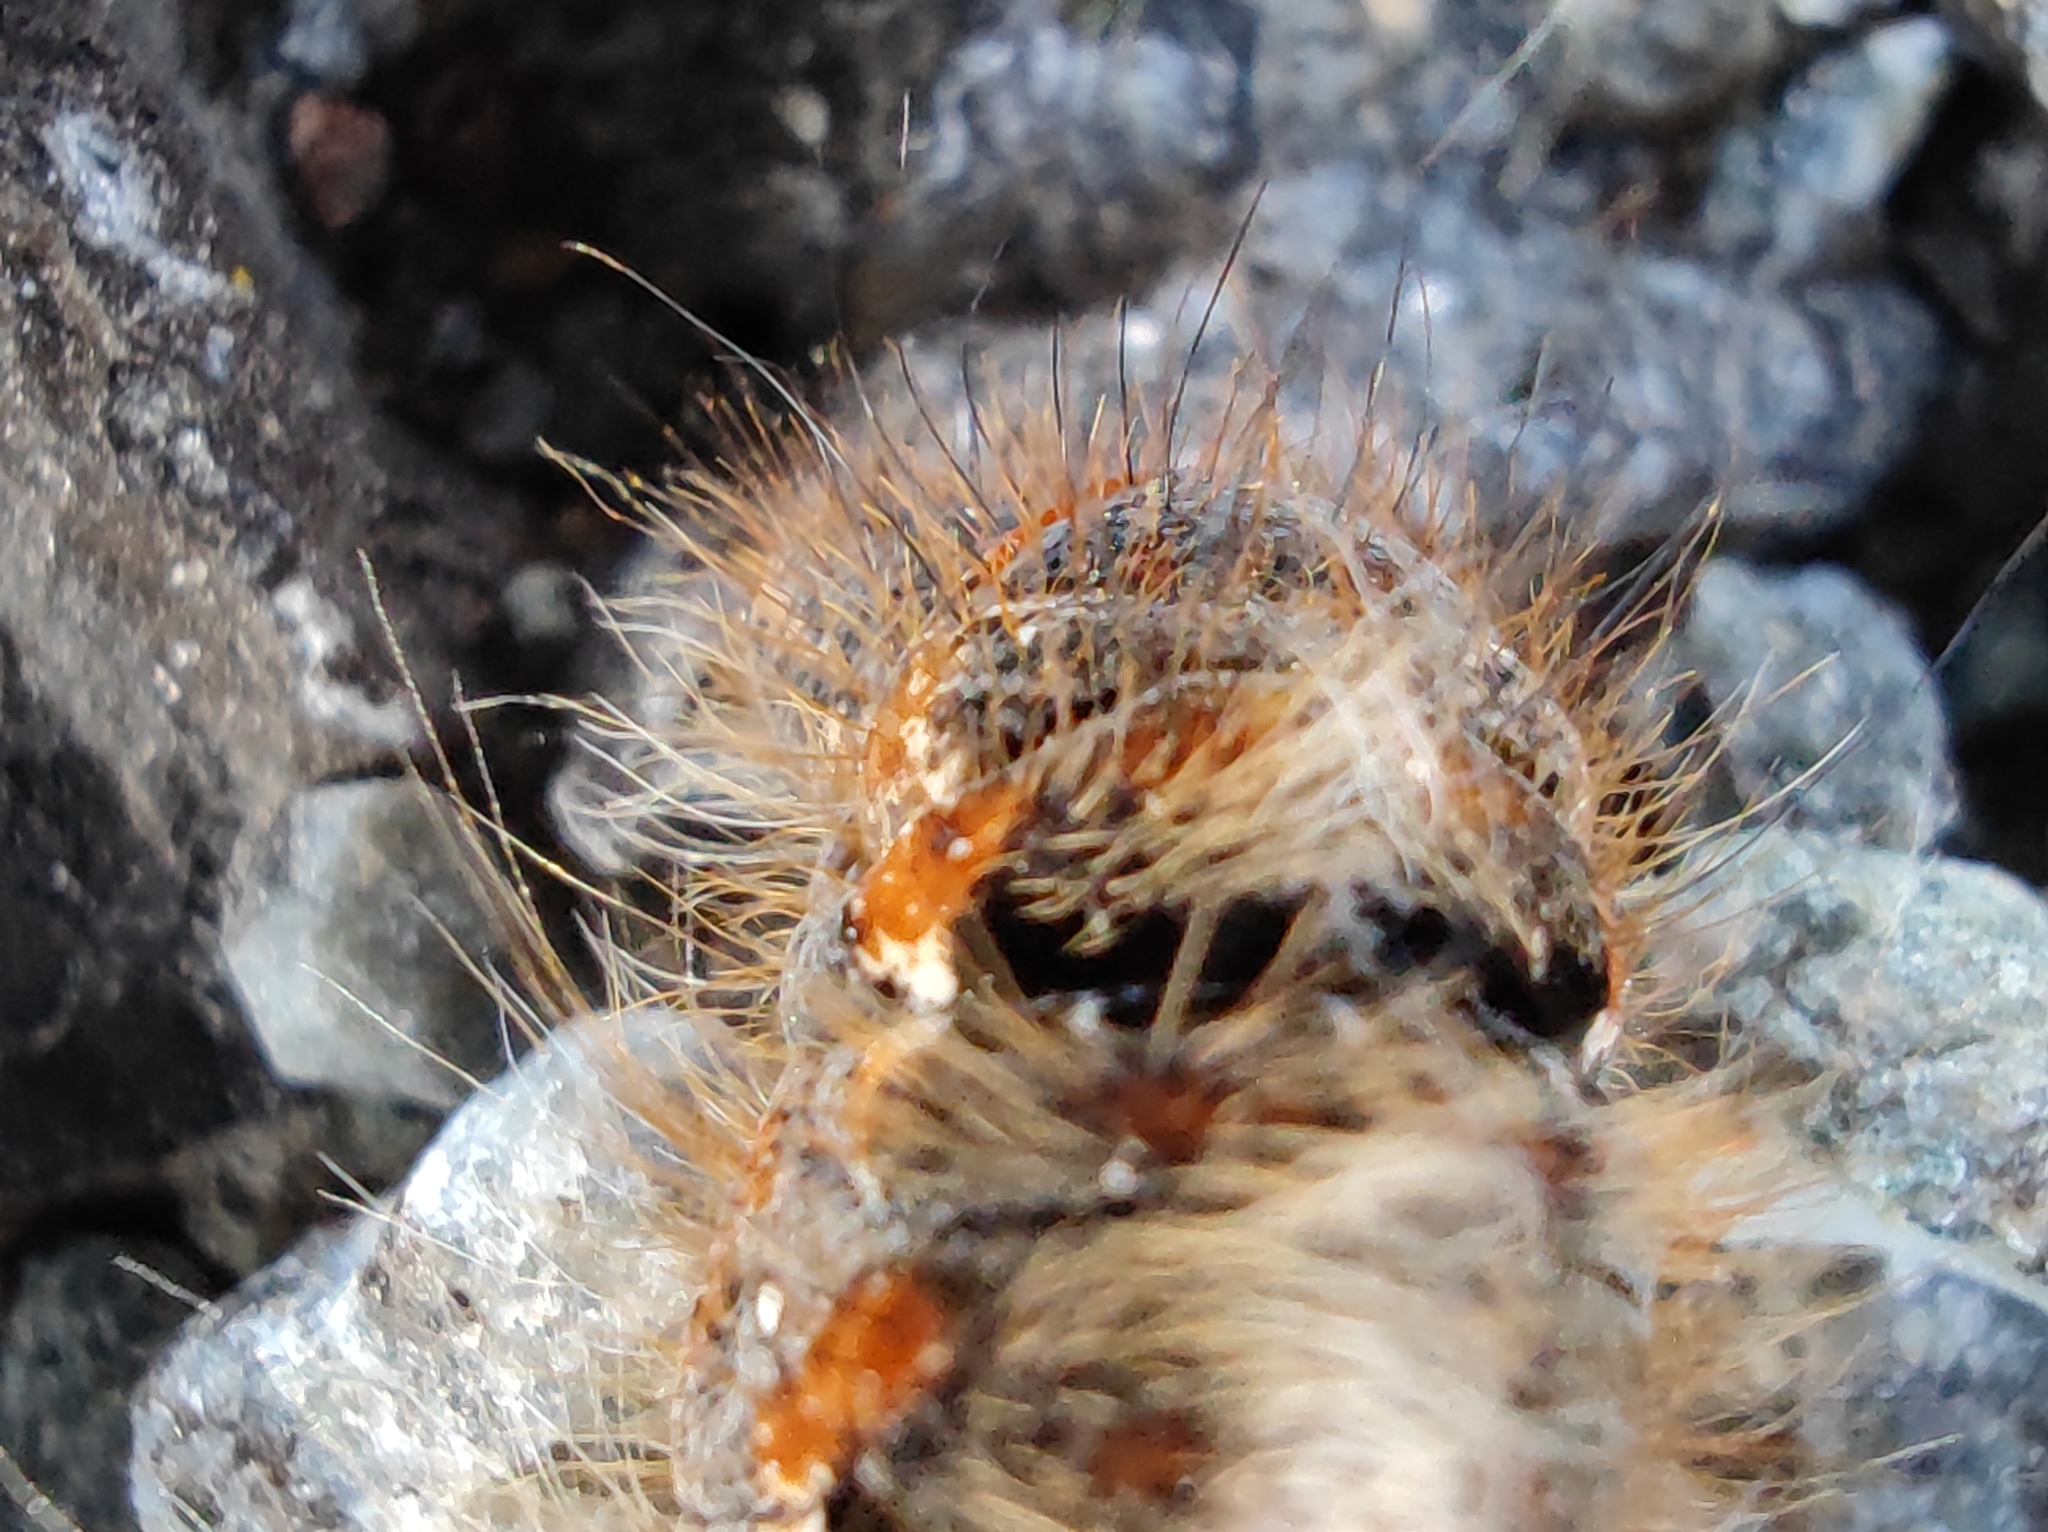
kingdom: Animalia
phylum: Arthropoda
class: Insecta
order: Lepidoptera
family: Lasiocampidae
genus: Lasiocampa
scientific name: Lasiocampa quercus
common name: Oak eggar
